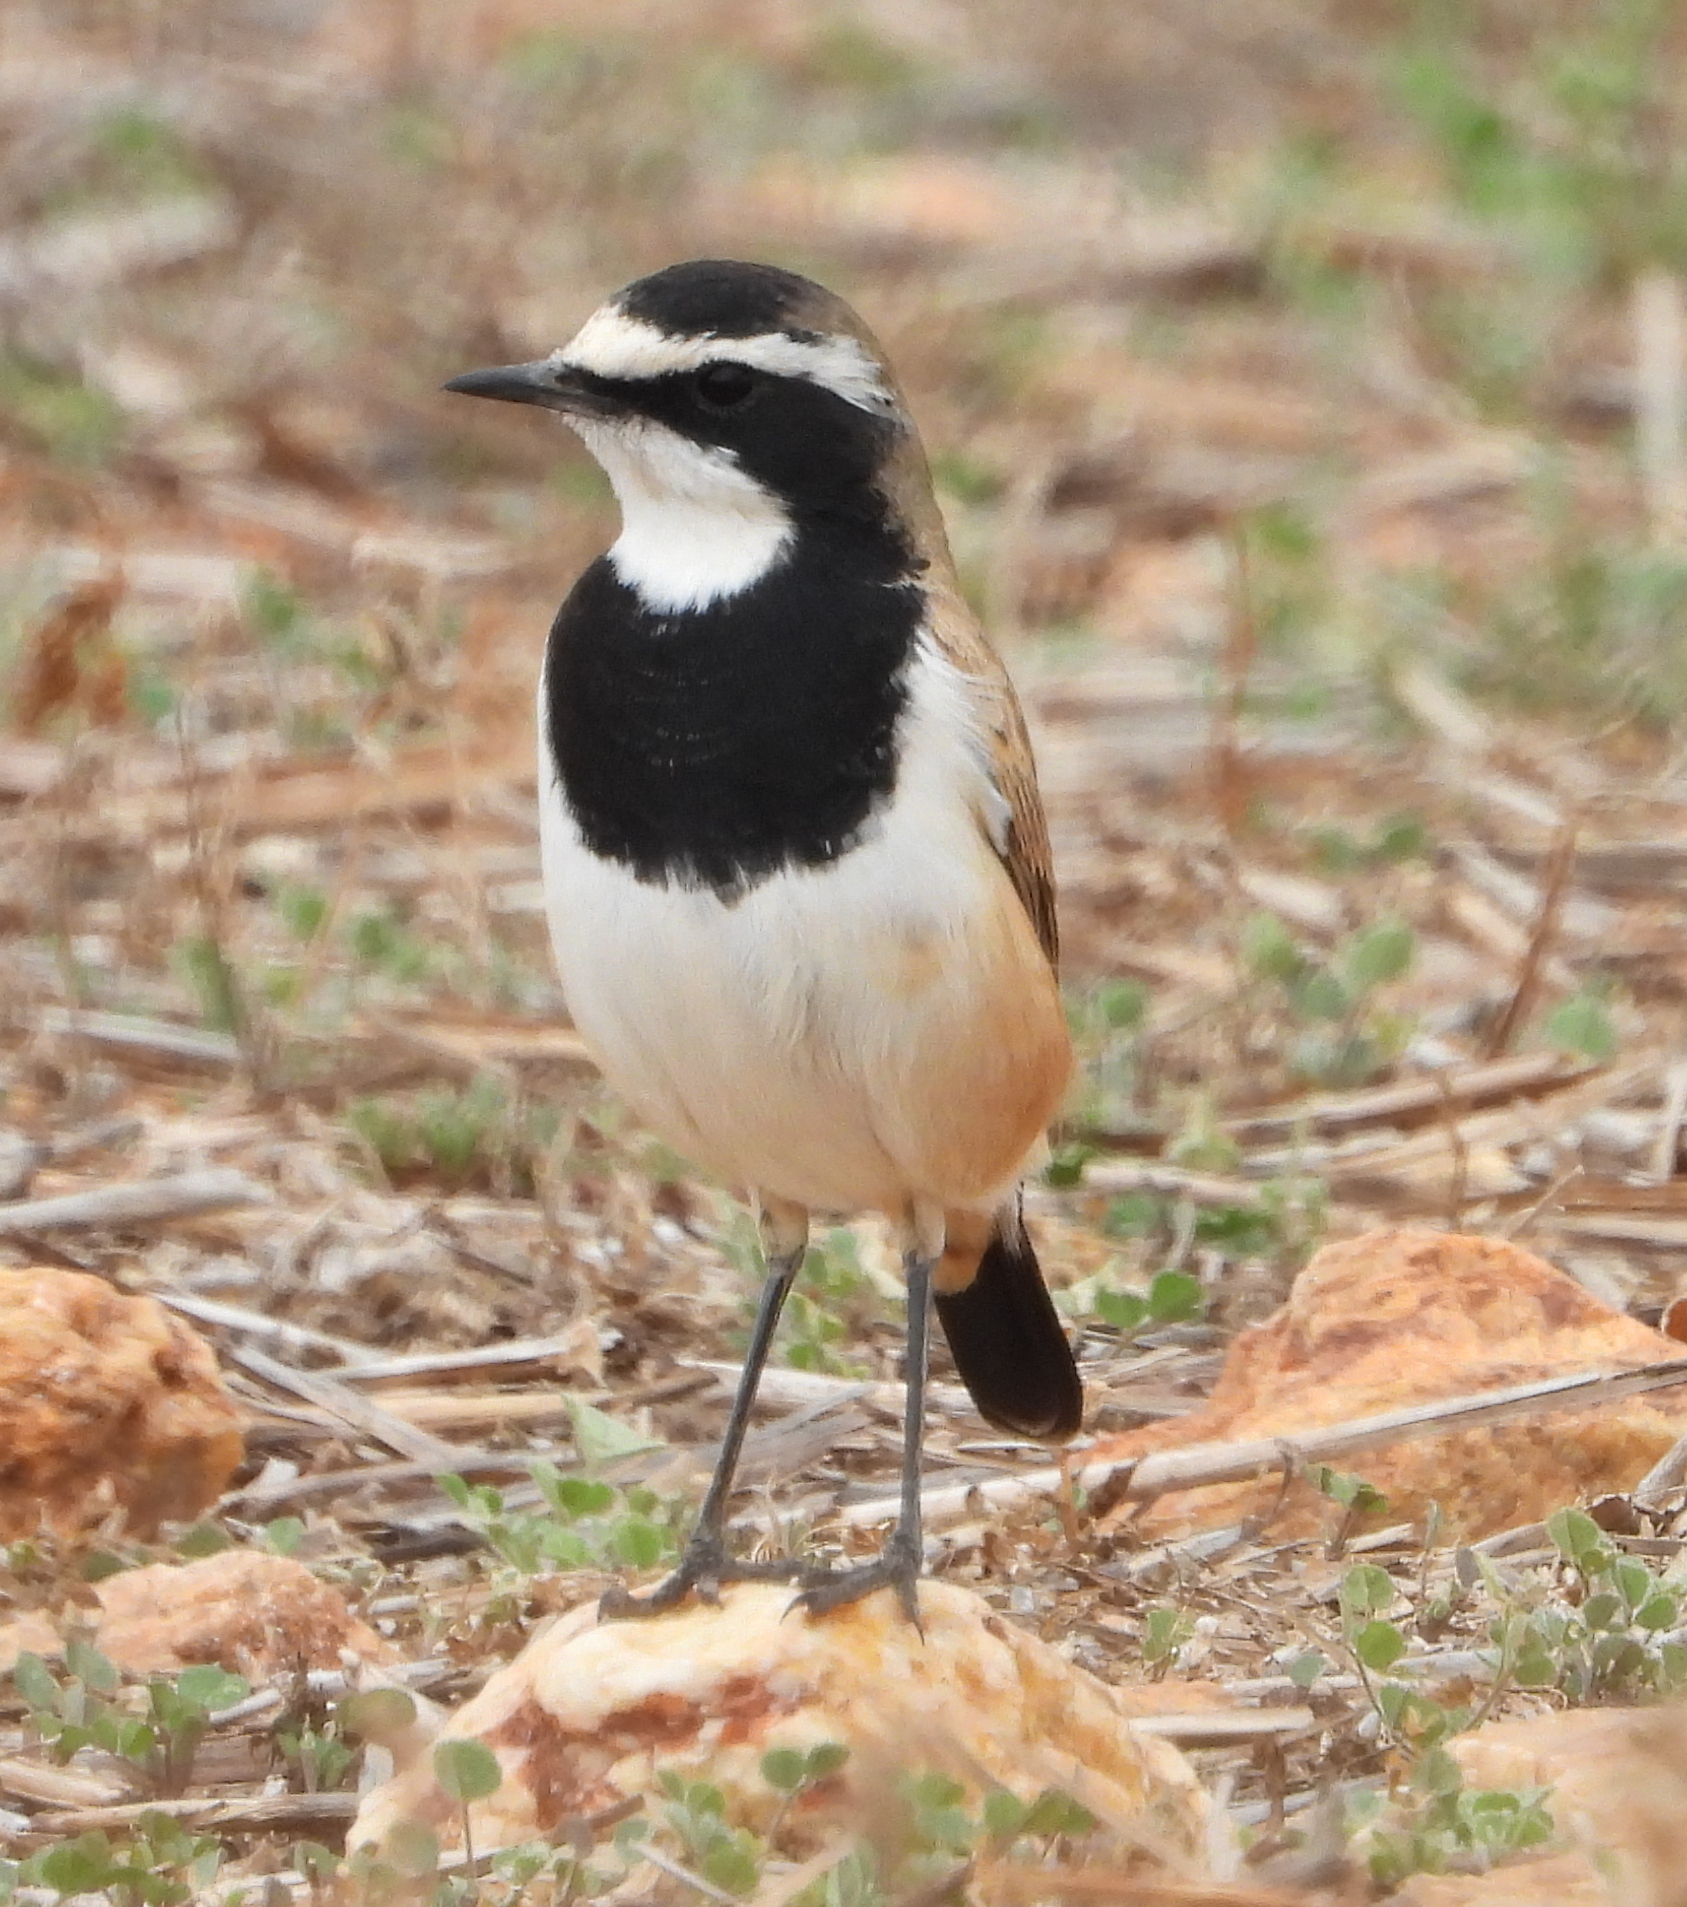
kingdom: Animalia
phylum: Chordata
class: Aves
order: Passeriformes
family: Muscicapidae
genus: Oenanthe
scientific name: Oenanthe pileata
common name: Capped wheatear
